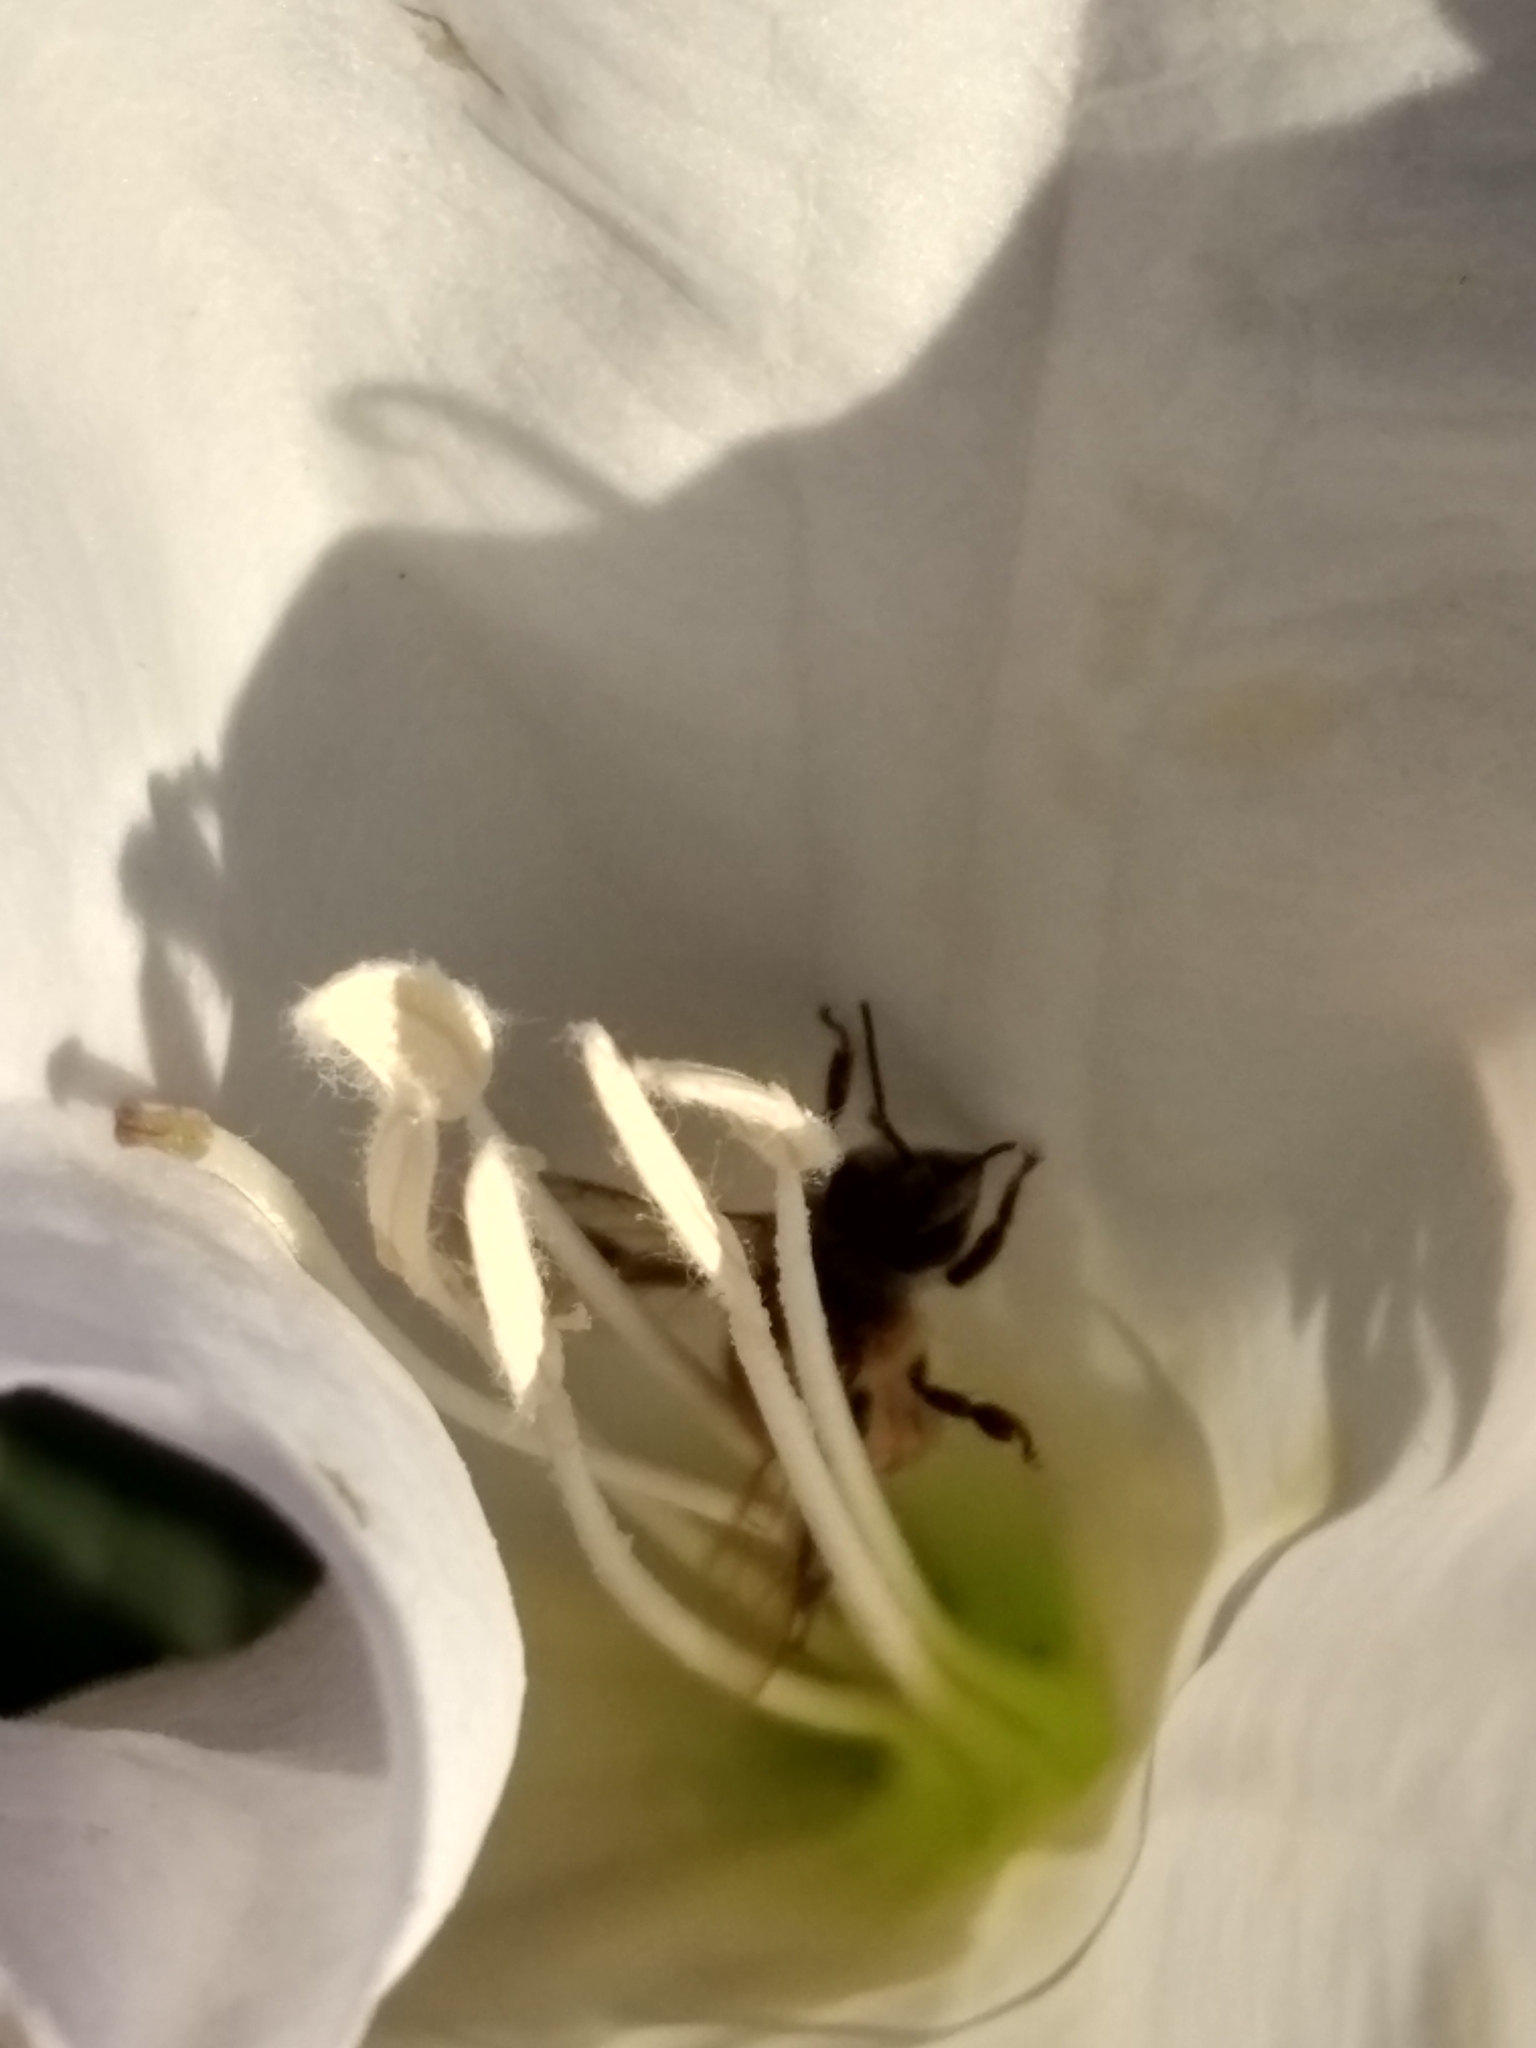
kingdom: Animalia
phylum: Arthropoda
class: Insecta
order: Hymenoptera
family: Apidae
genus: Apis
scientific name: Apis mellifera
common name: Honey bee
